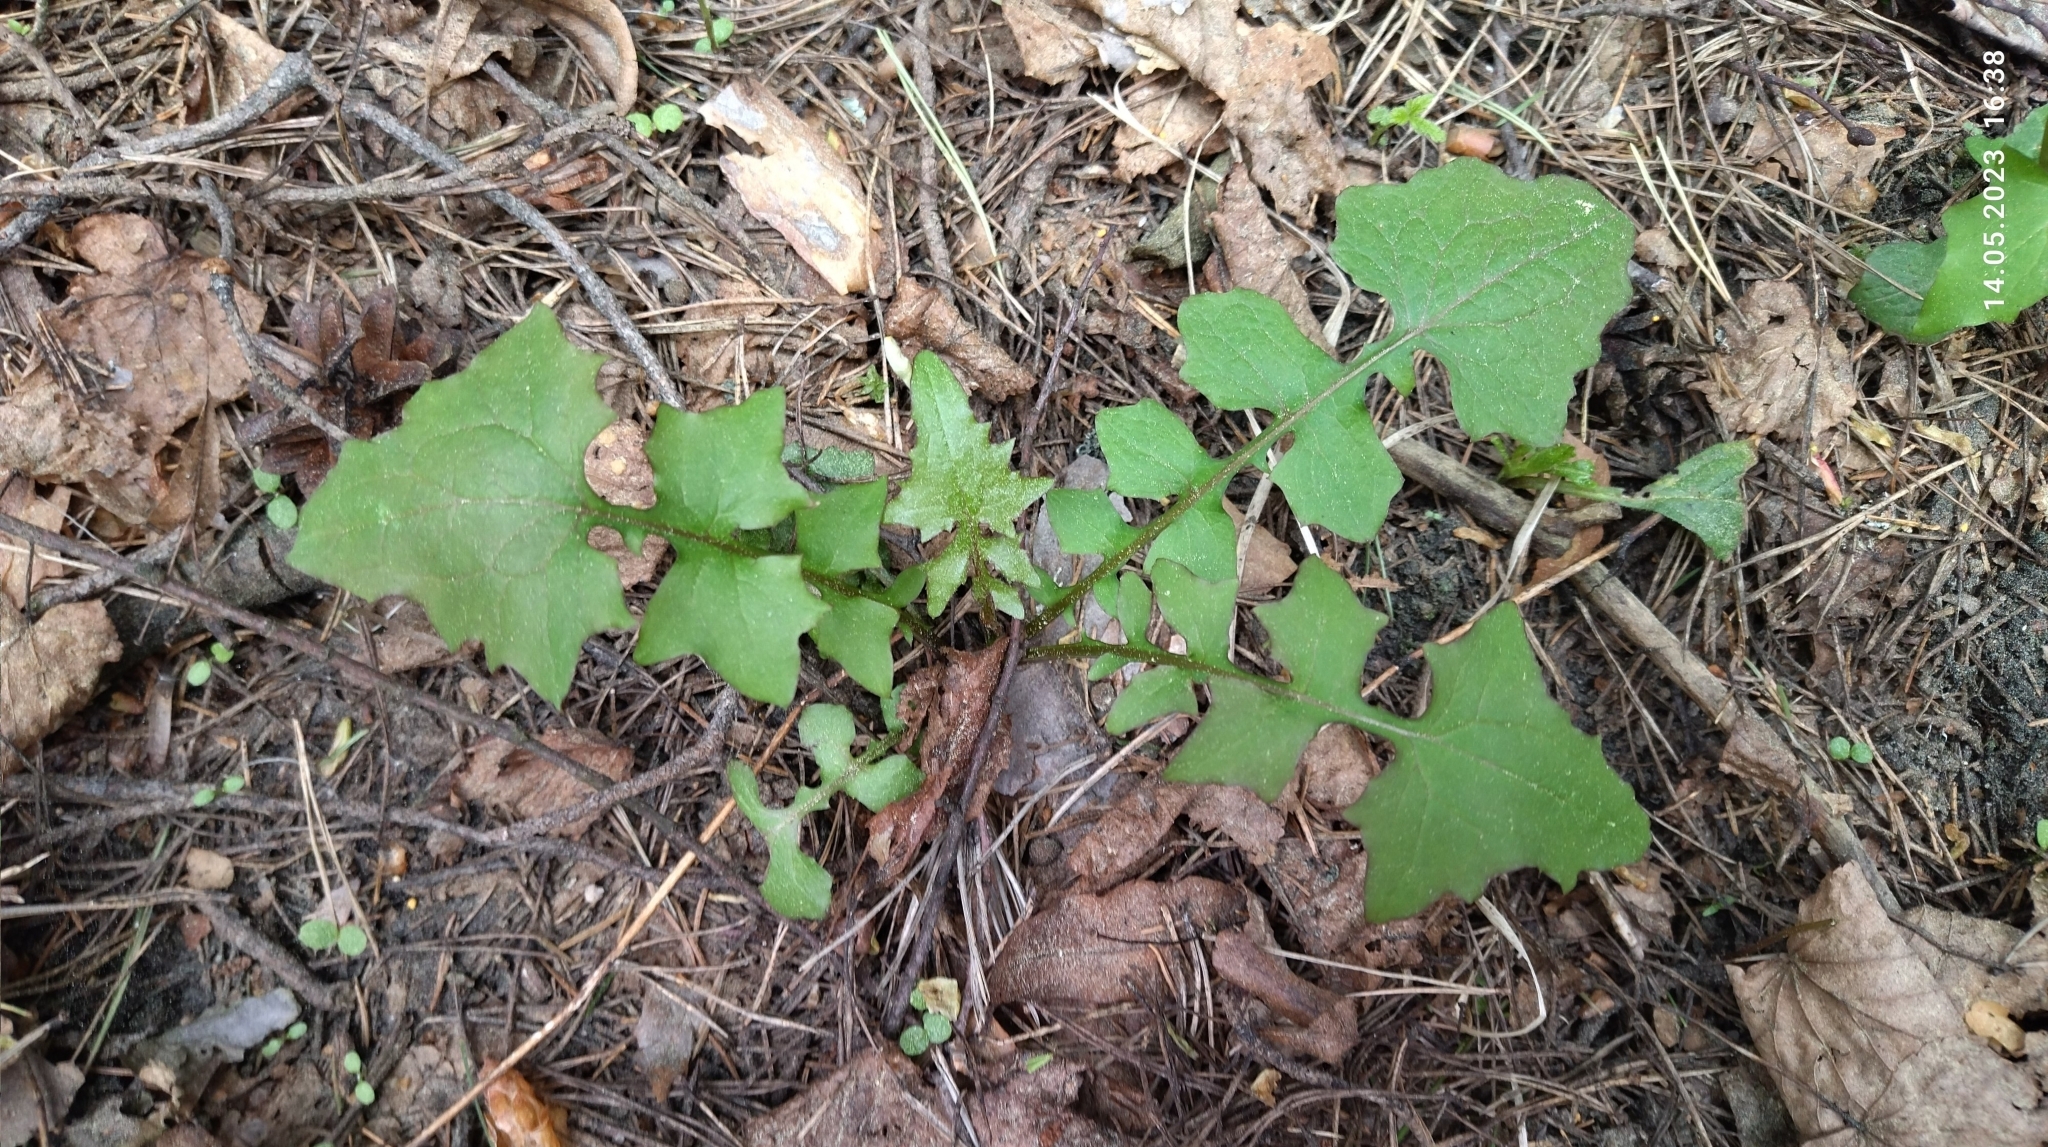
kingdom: Plantae
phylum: Tracheophyta
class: Magnoliopsida
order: Asterales
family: Asteraceae
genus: Mycelis
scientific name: Mycelis muralis
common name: Wall lettuce
